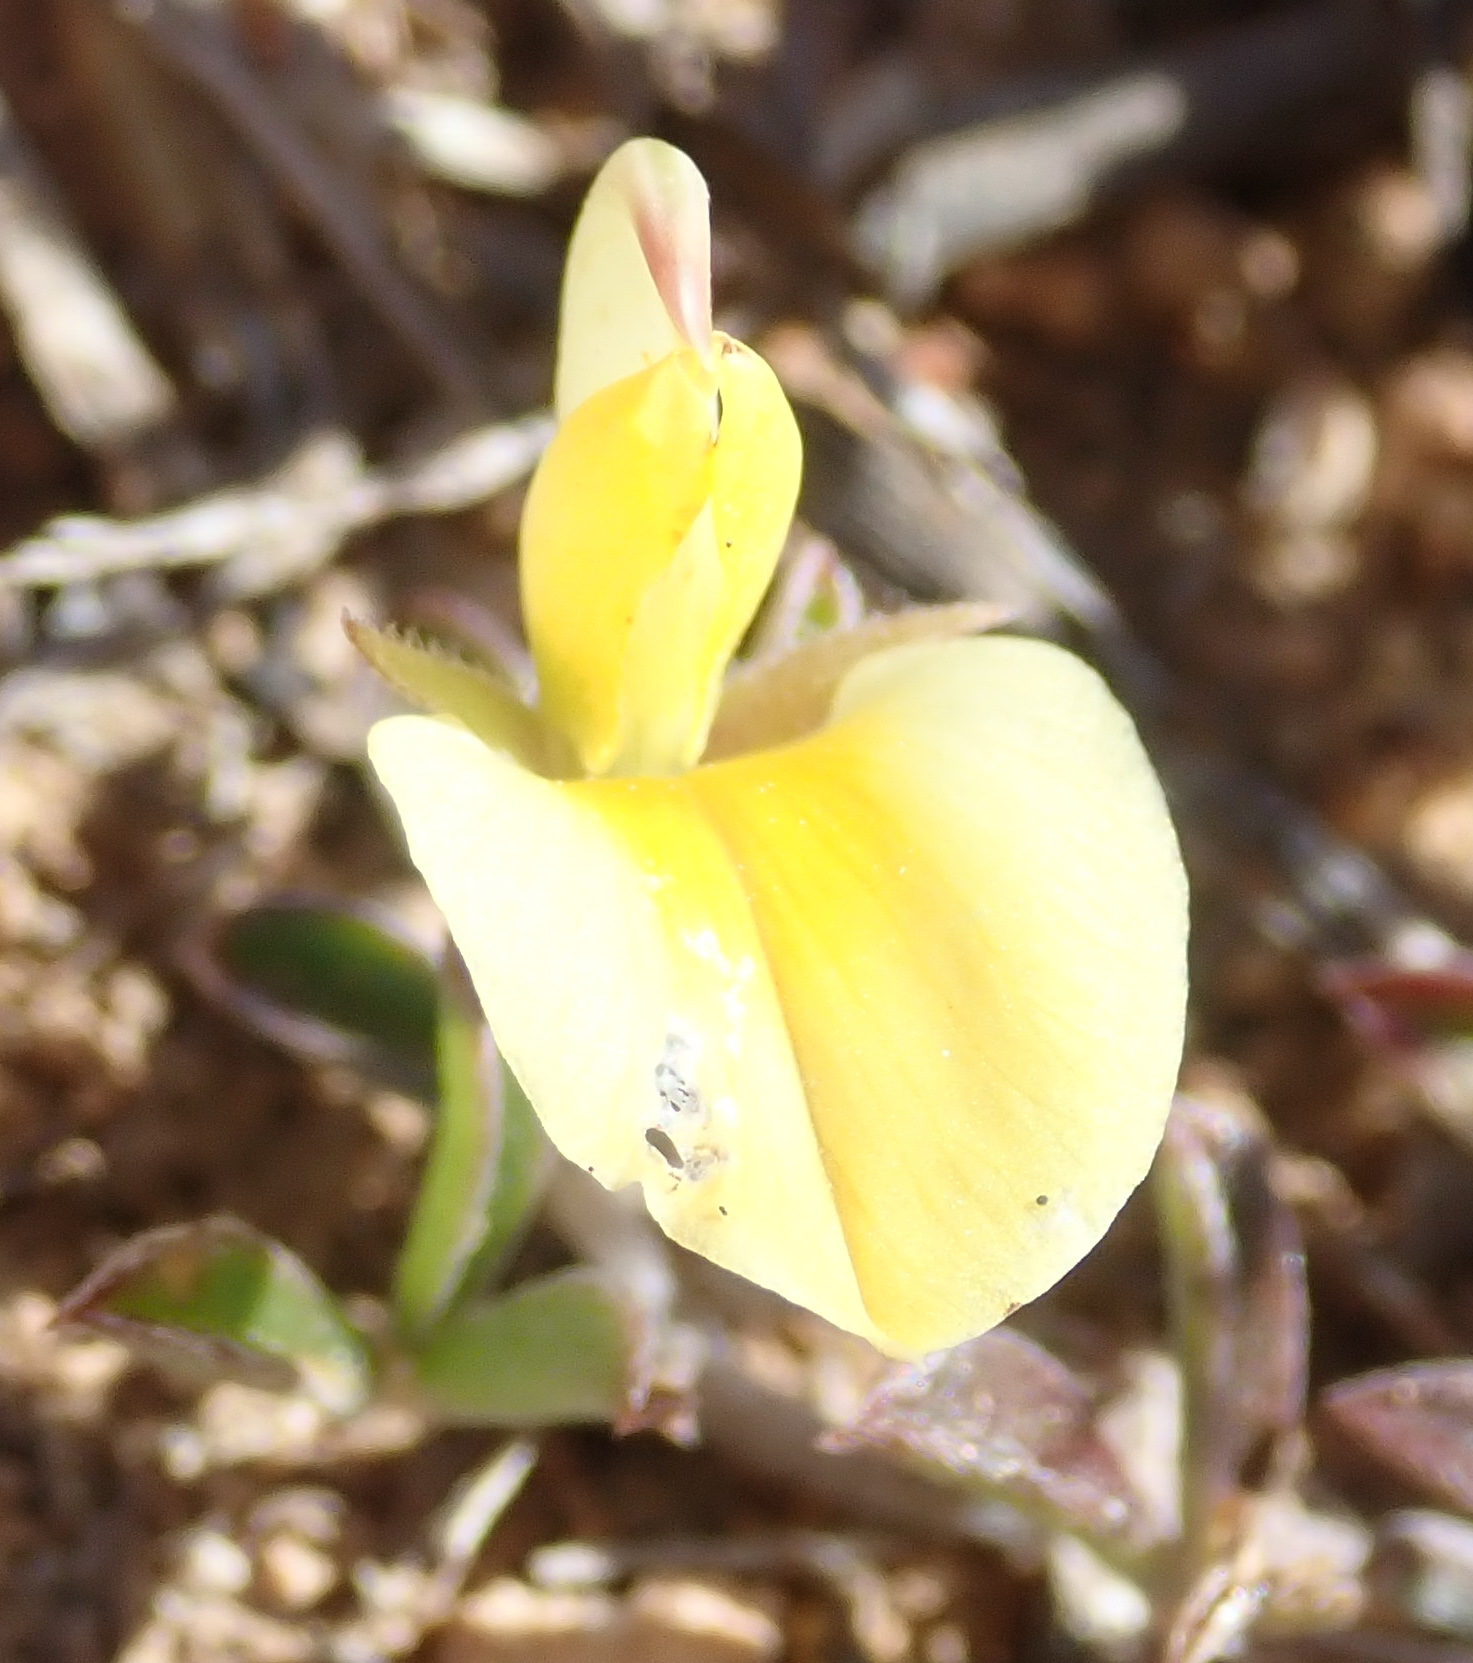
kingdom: Plantae
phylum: Tracheophyta
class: Magnoliopsida
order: Fabales
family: Fabaceae
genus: Lotononis
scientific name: Lotononis pungens
